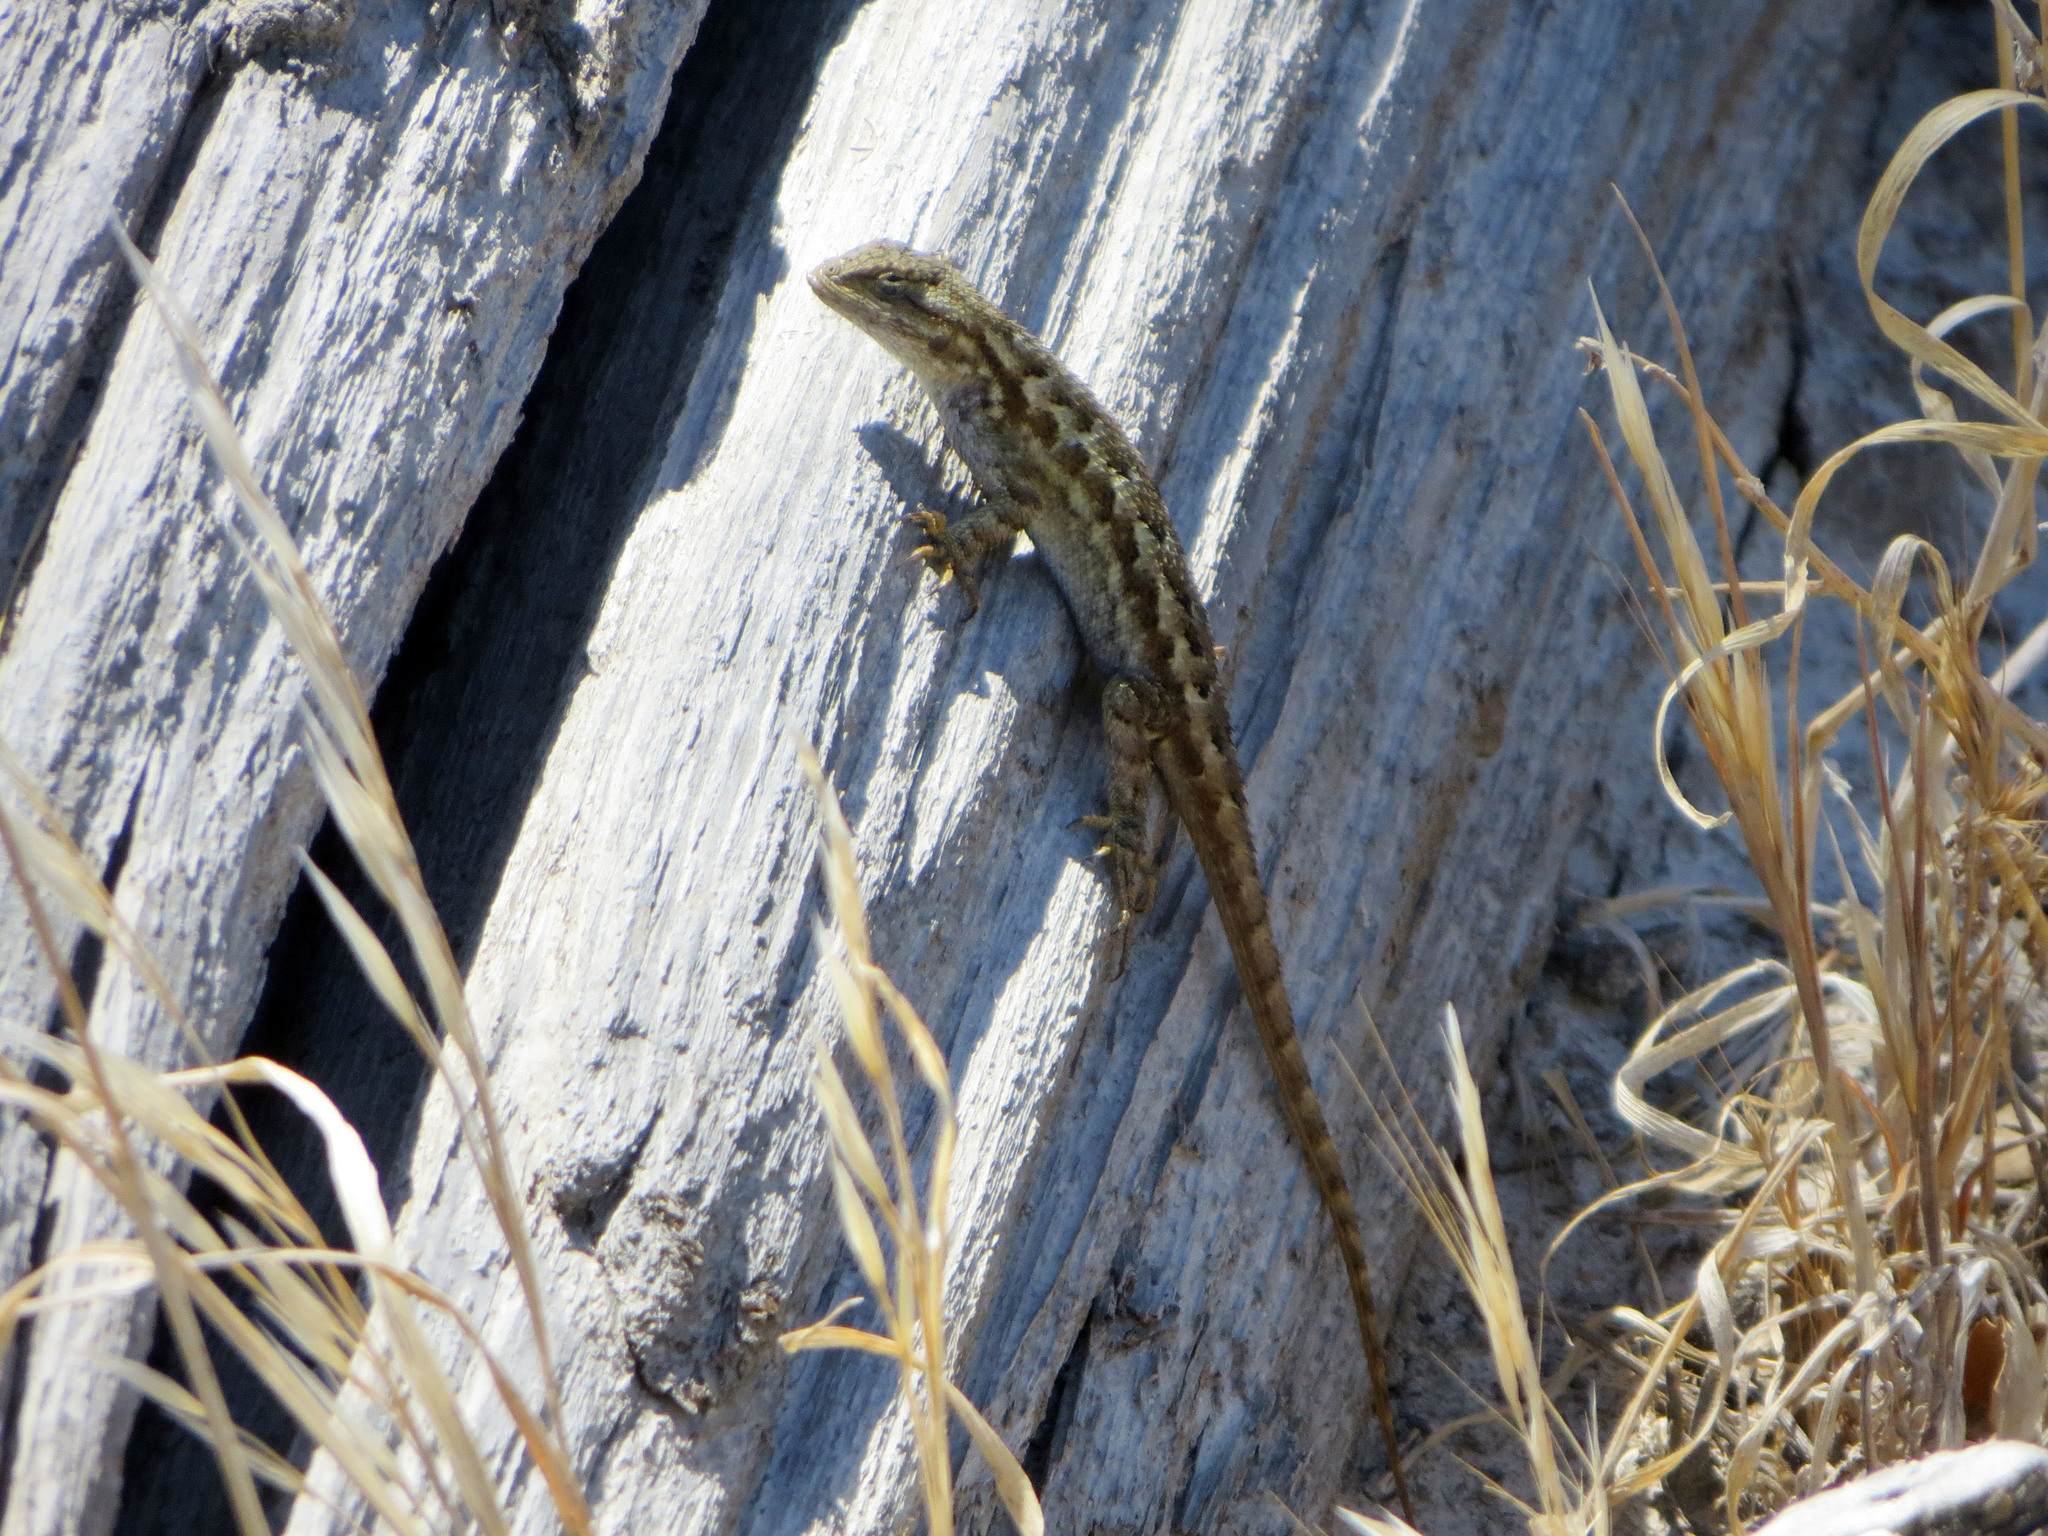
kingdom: Animalia
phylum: Chordata
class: Squamata
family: Phrynosomatidae
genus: Sceloporus
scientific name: Sceloporus occidentalis
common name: Western fence lizard
